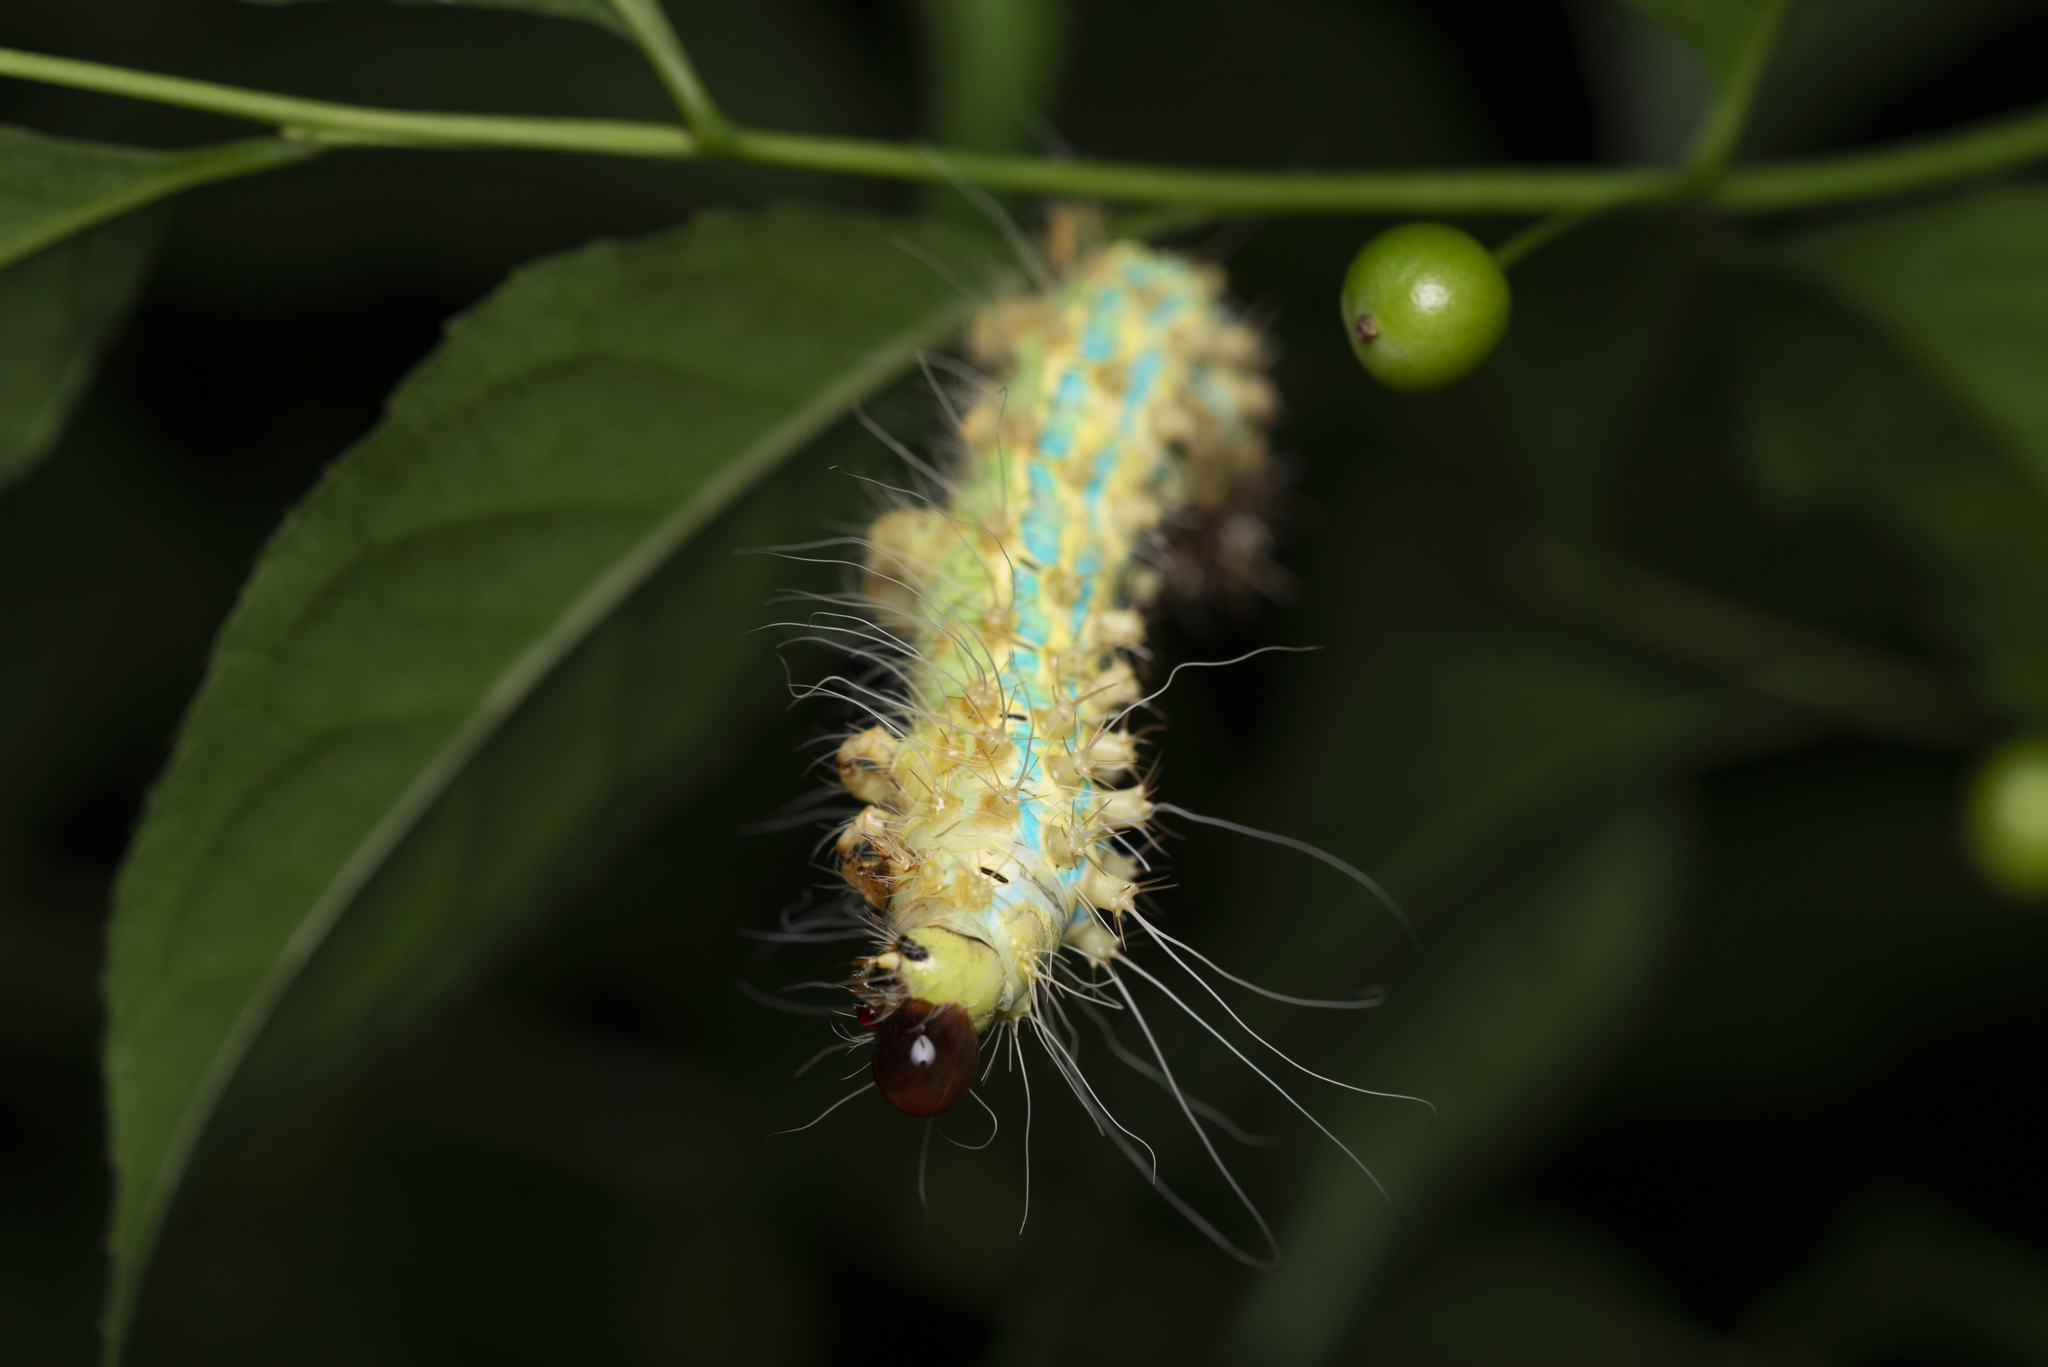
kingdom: Animalia
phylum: Arthropoda
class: Insecta
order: Lepidoptera
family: Saturniidae
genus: Saturnia
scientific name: Saturnia pyretorum
